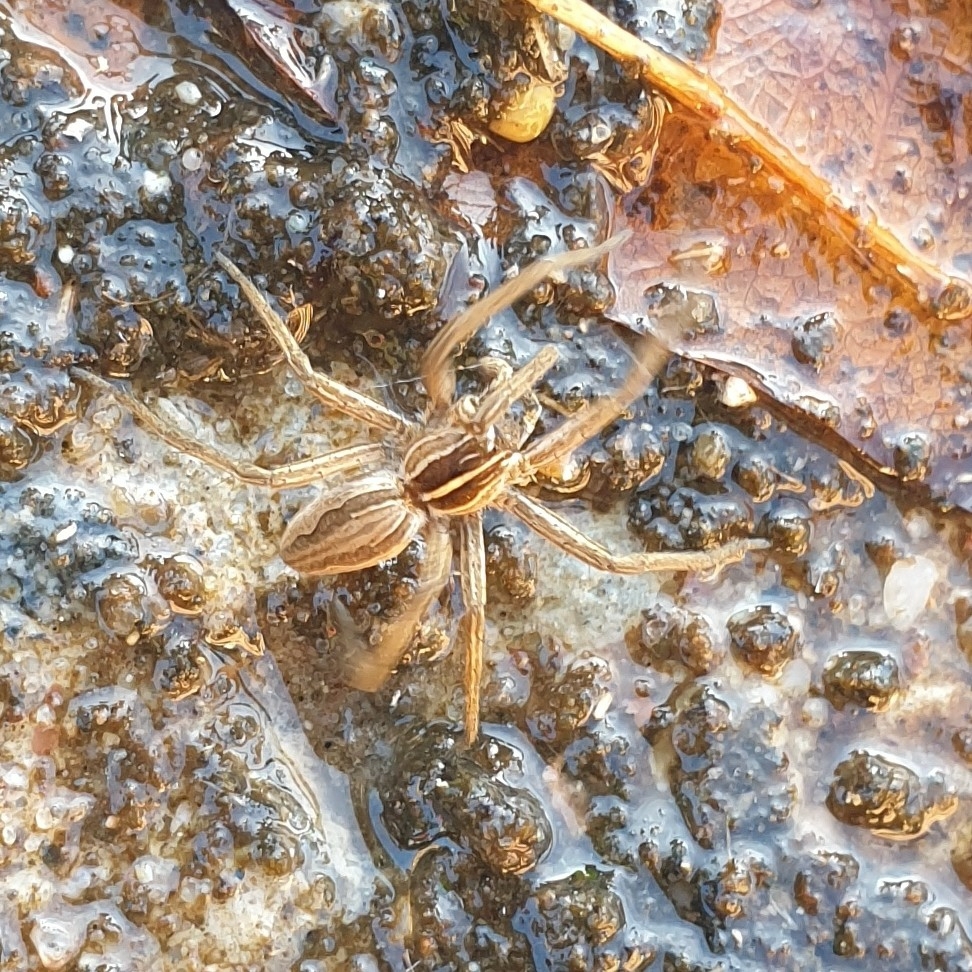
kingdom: Animalia
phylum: Arthropoda
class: Arachnida
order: Araneae
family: Pisauridae
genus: Pisaura
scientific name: Pisaura mirabilis
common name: Tent spider
